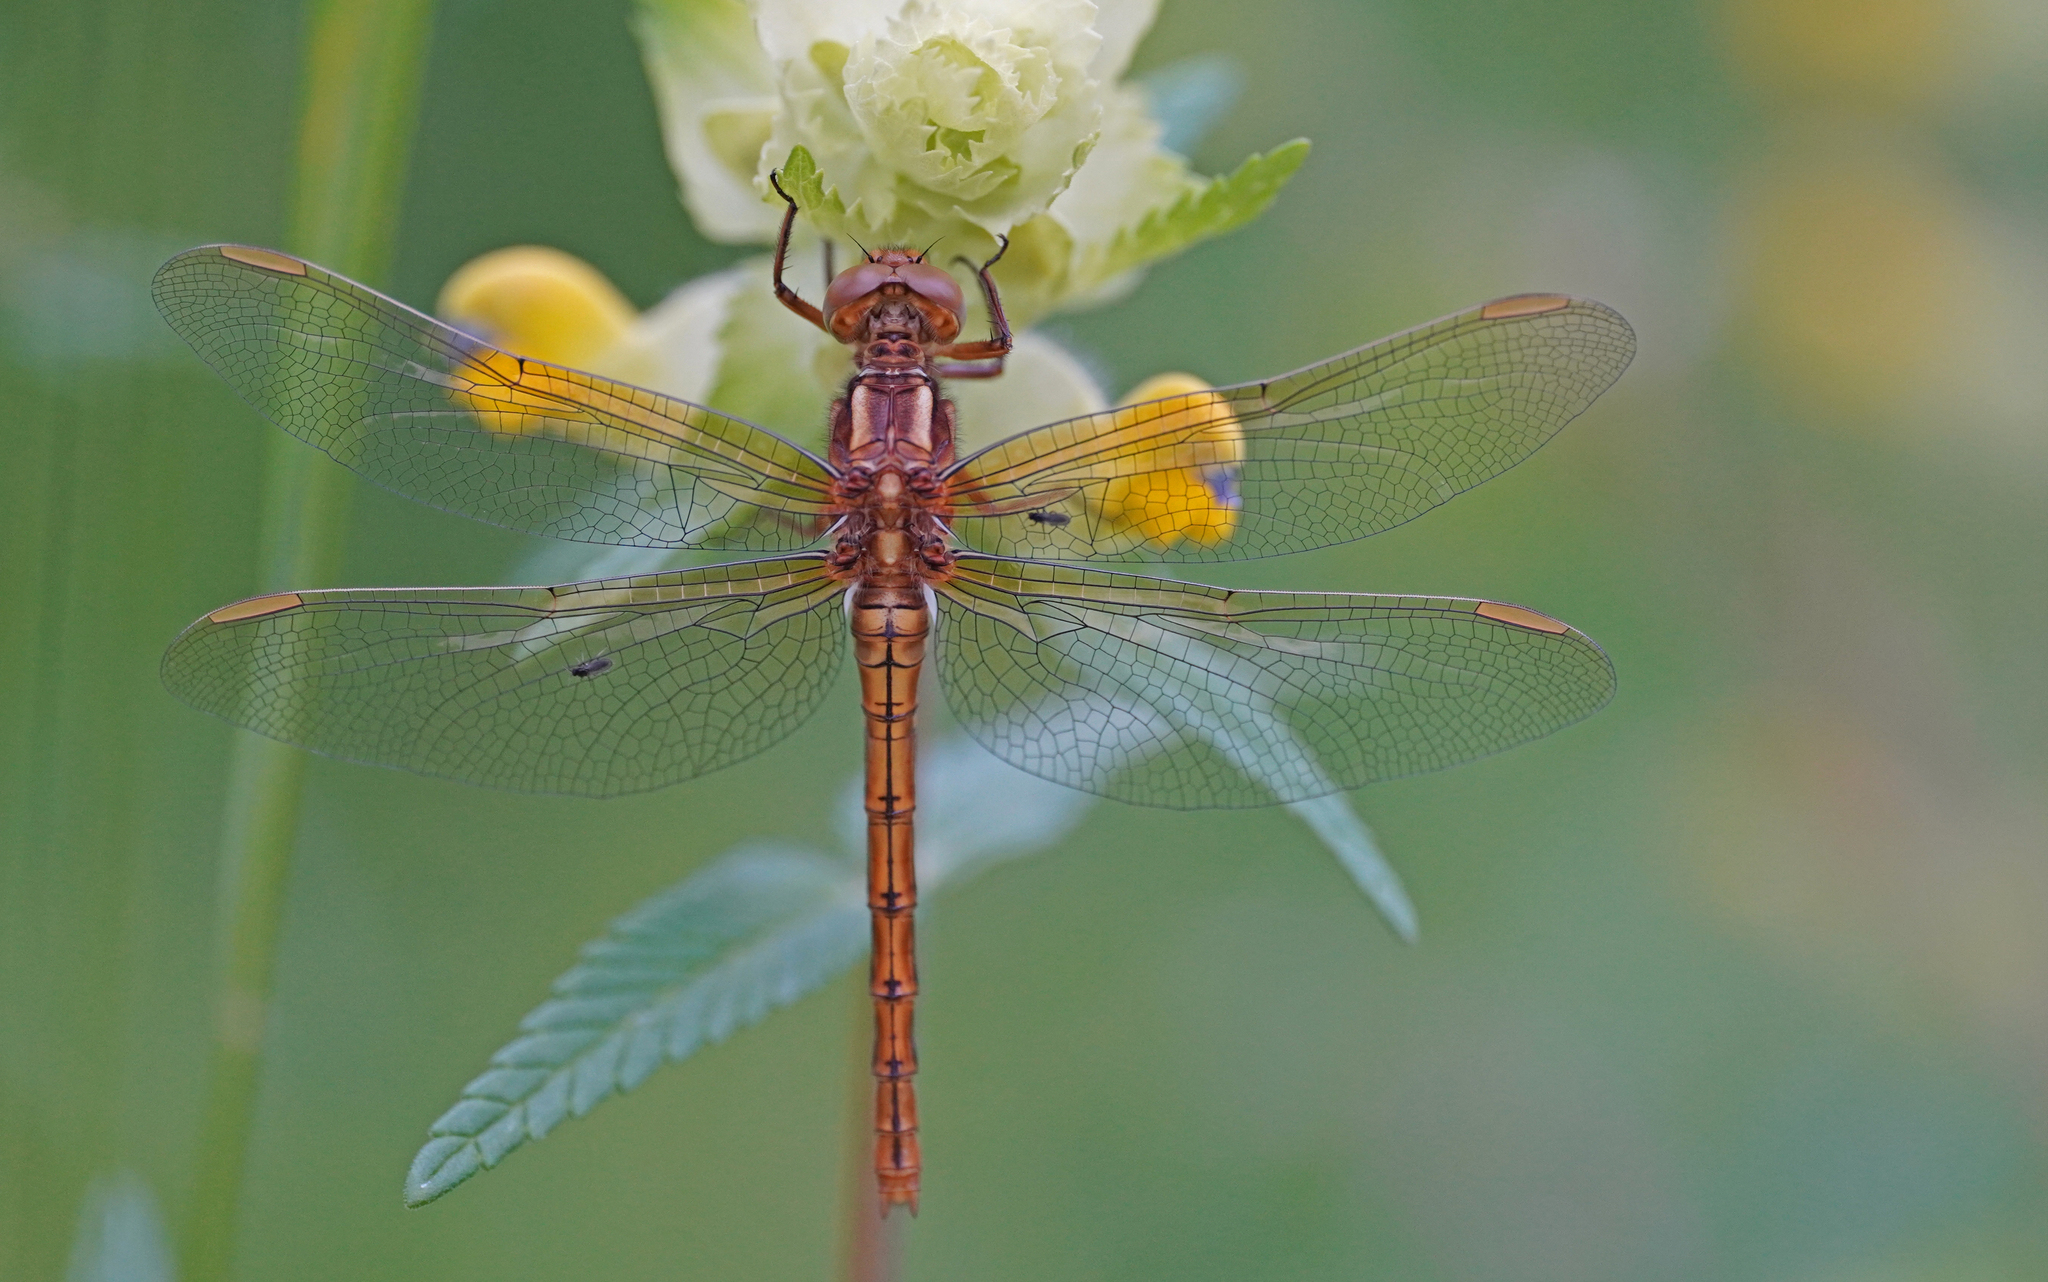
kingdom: Animalia
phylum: Arthropoda
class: Insecta
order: Odonata
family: Libellulidae
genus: Orthetrum
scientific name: Orthetrum coerulescens
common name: Keeled skimmer
